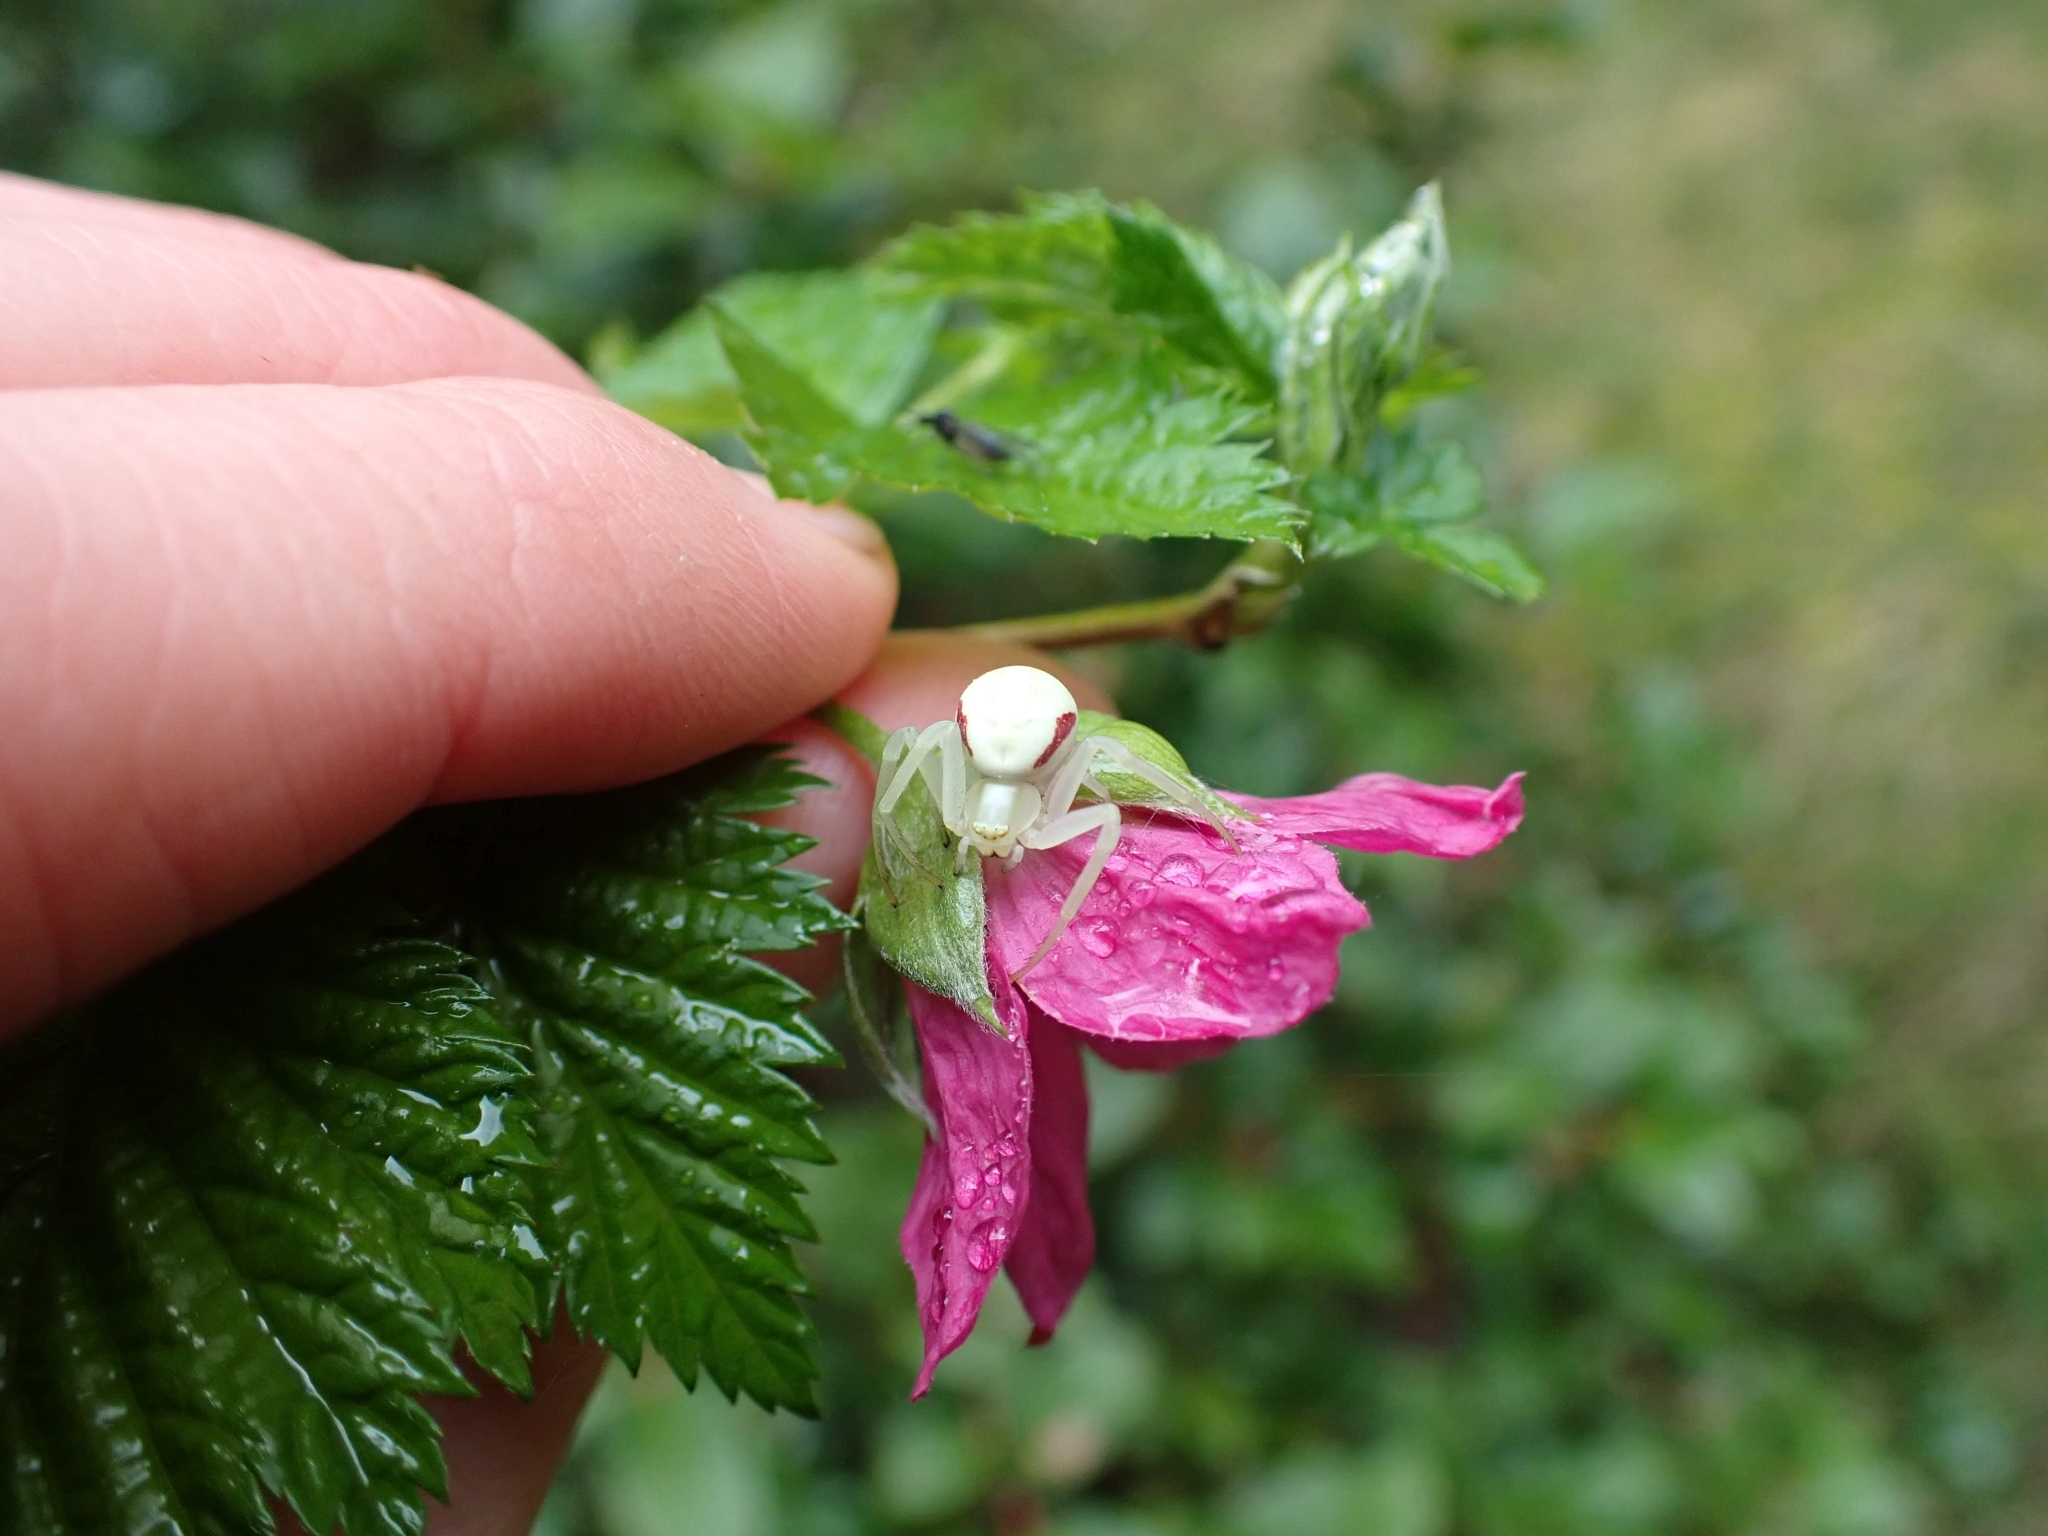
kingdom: Animalia
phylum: Arthropoda
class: Arachnida
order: Araneae
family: Thomisidae
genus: Misumena
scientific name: Misumena vatia
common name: Goldenrod crab spider
